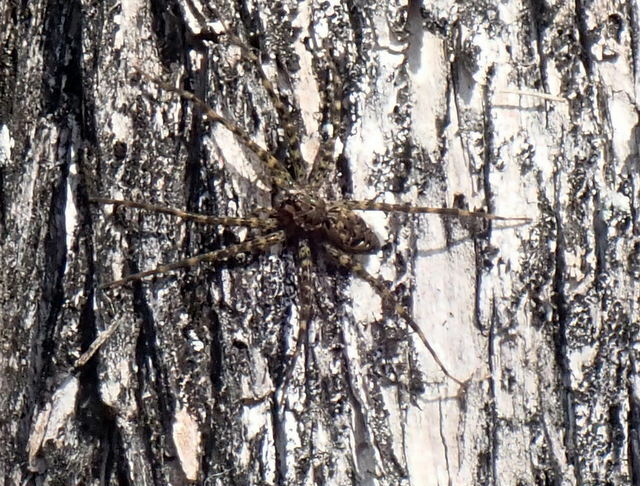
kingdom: Animalia
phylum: Arthropoda
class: Arachnida
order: Araneae
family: Pisauridae
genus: Dolomedes
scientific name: Dolomedes
